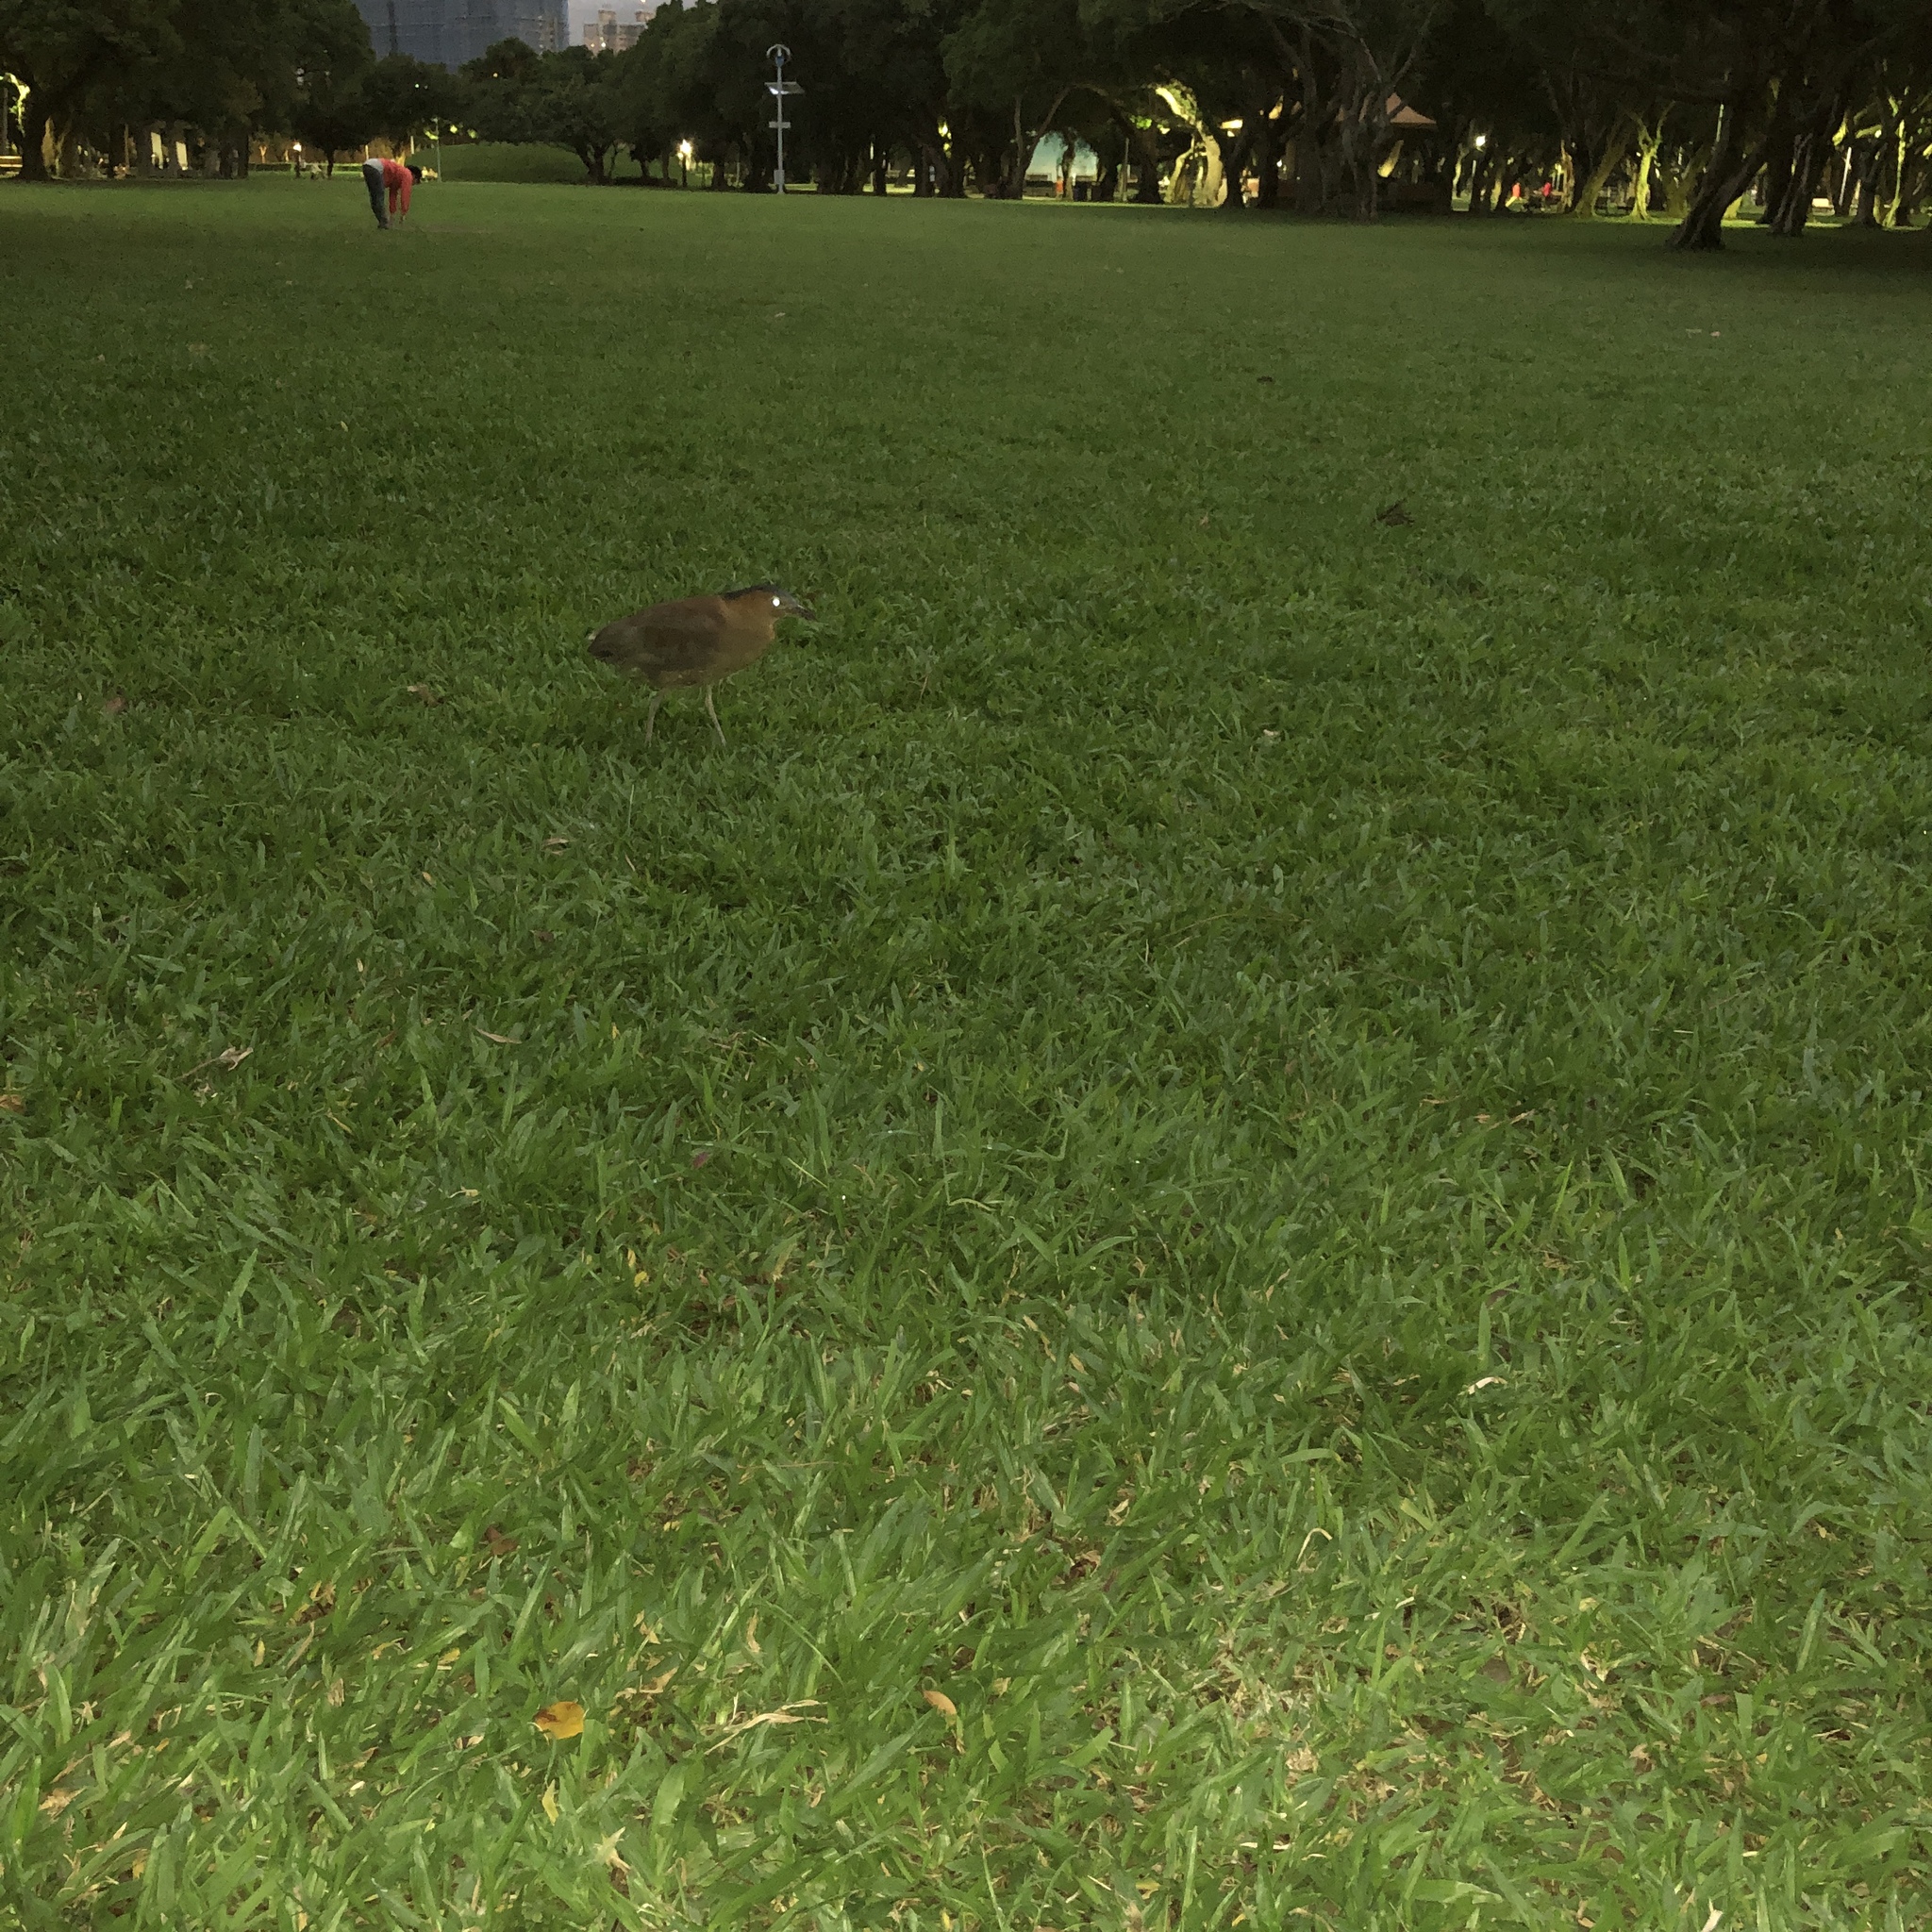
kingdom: Animalia
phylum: Chordata
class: Aves
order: Pelecaniformes
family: Ardeidae
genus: Gorsachius
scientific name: Gorsachius melanolophus
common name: Malayan night heron
